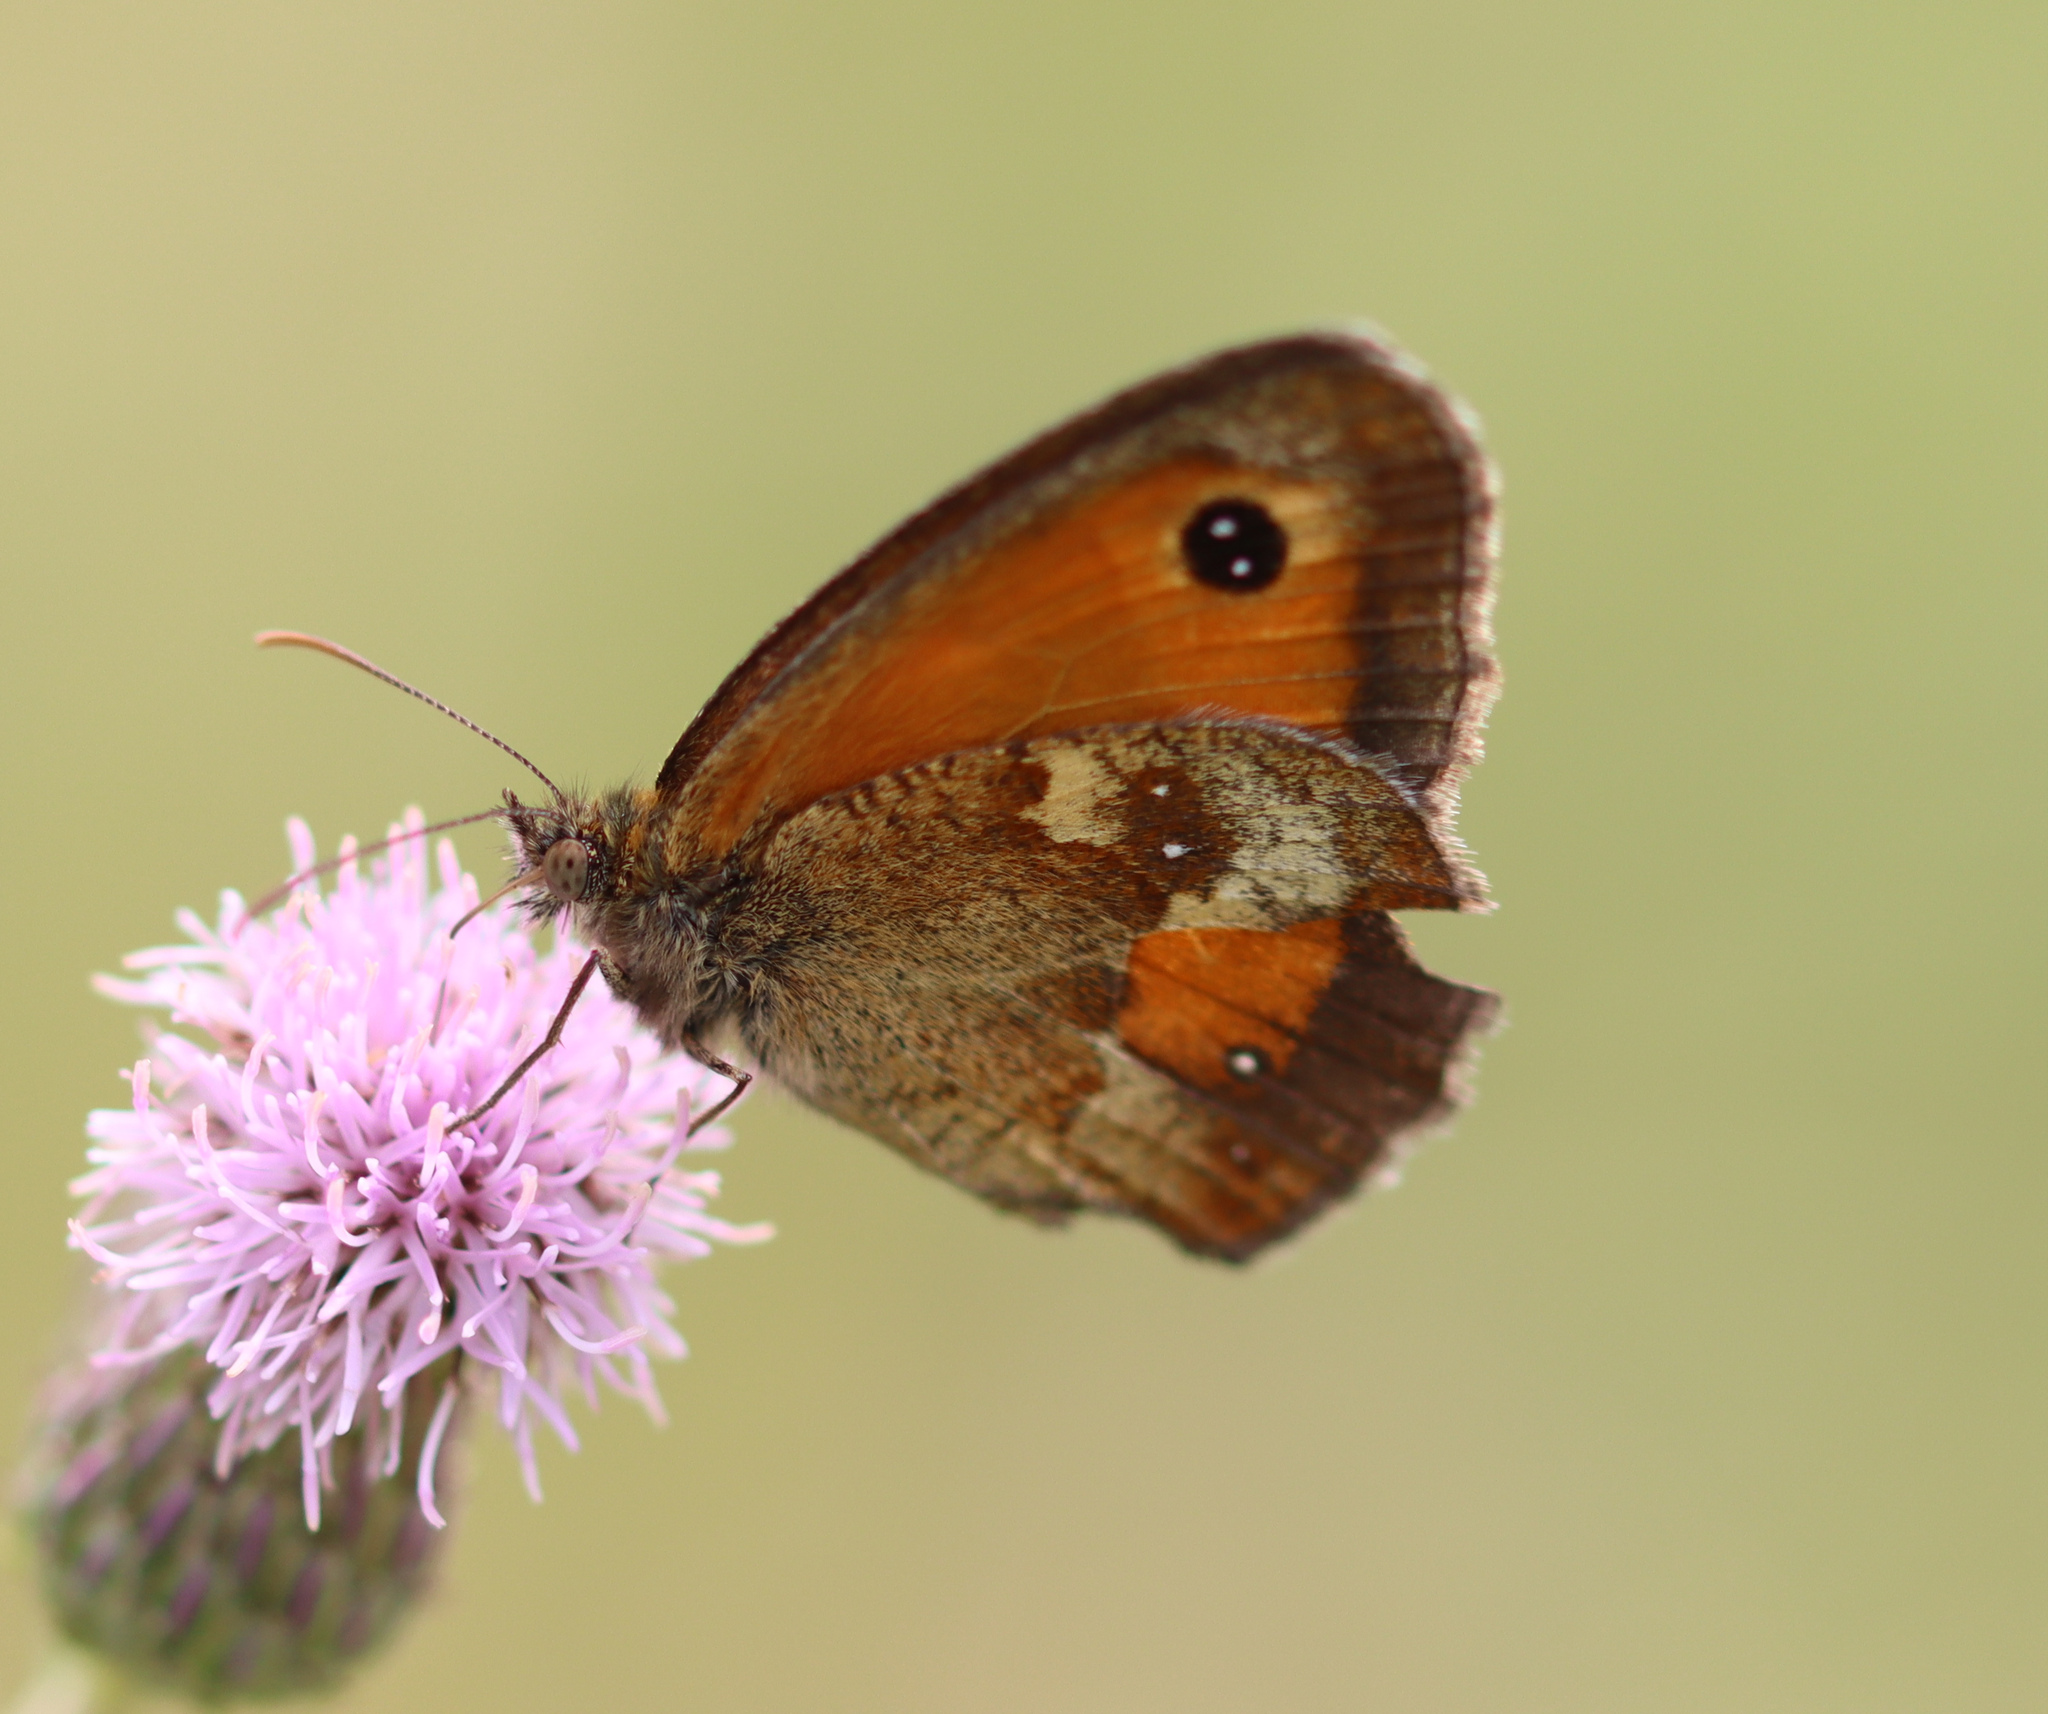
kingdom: Animalia
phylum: Arthropoda
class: Insecta
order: Lepidoptera
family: Nymphalidae
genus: Pyronia
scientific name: Pyronia tithonus
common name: Gatekeeper
